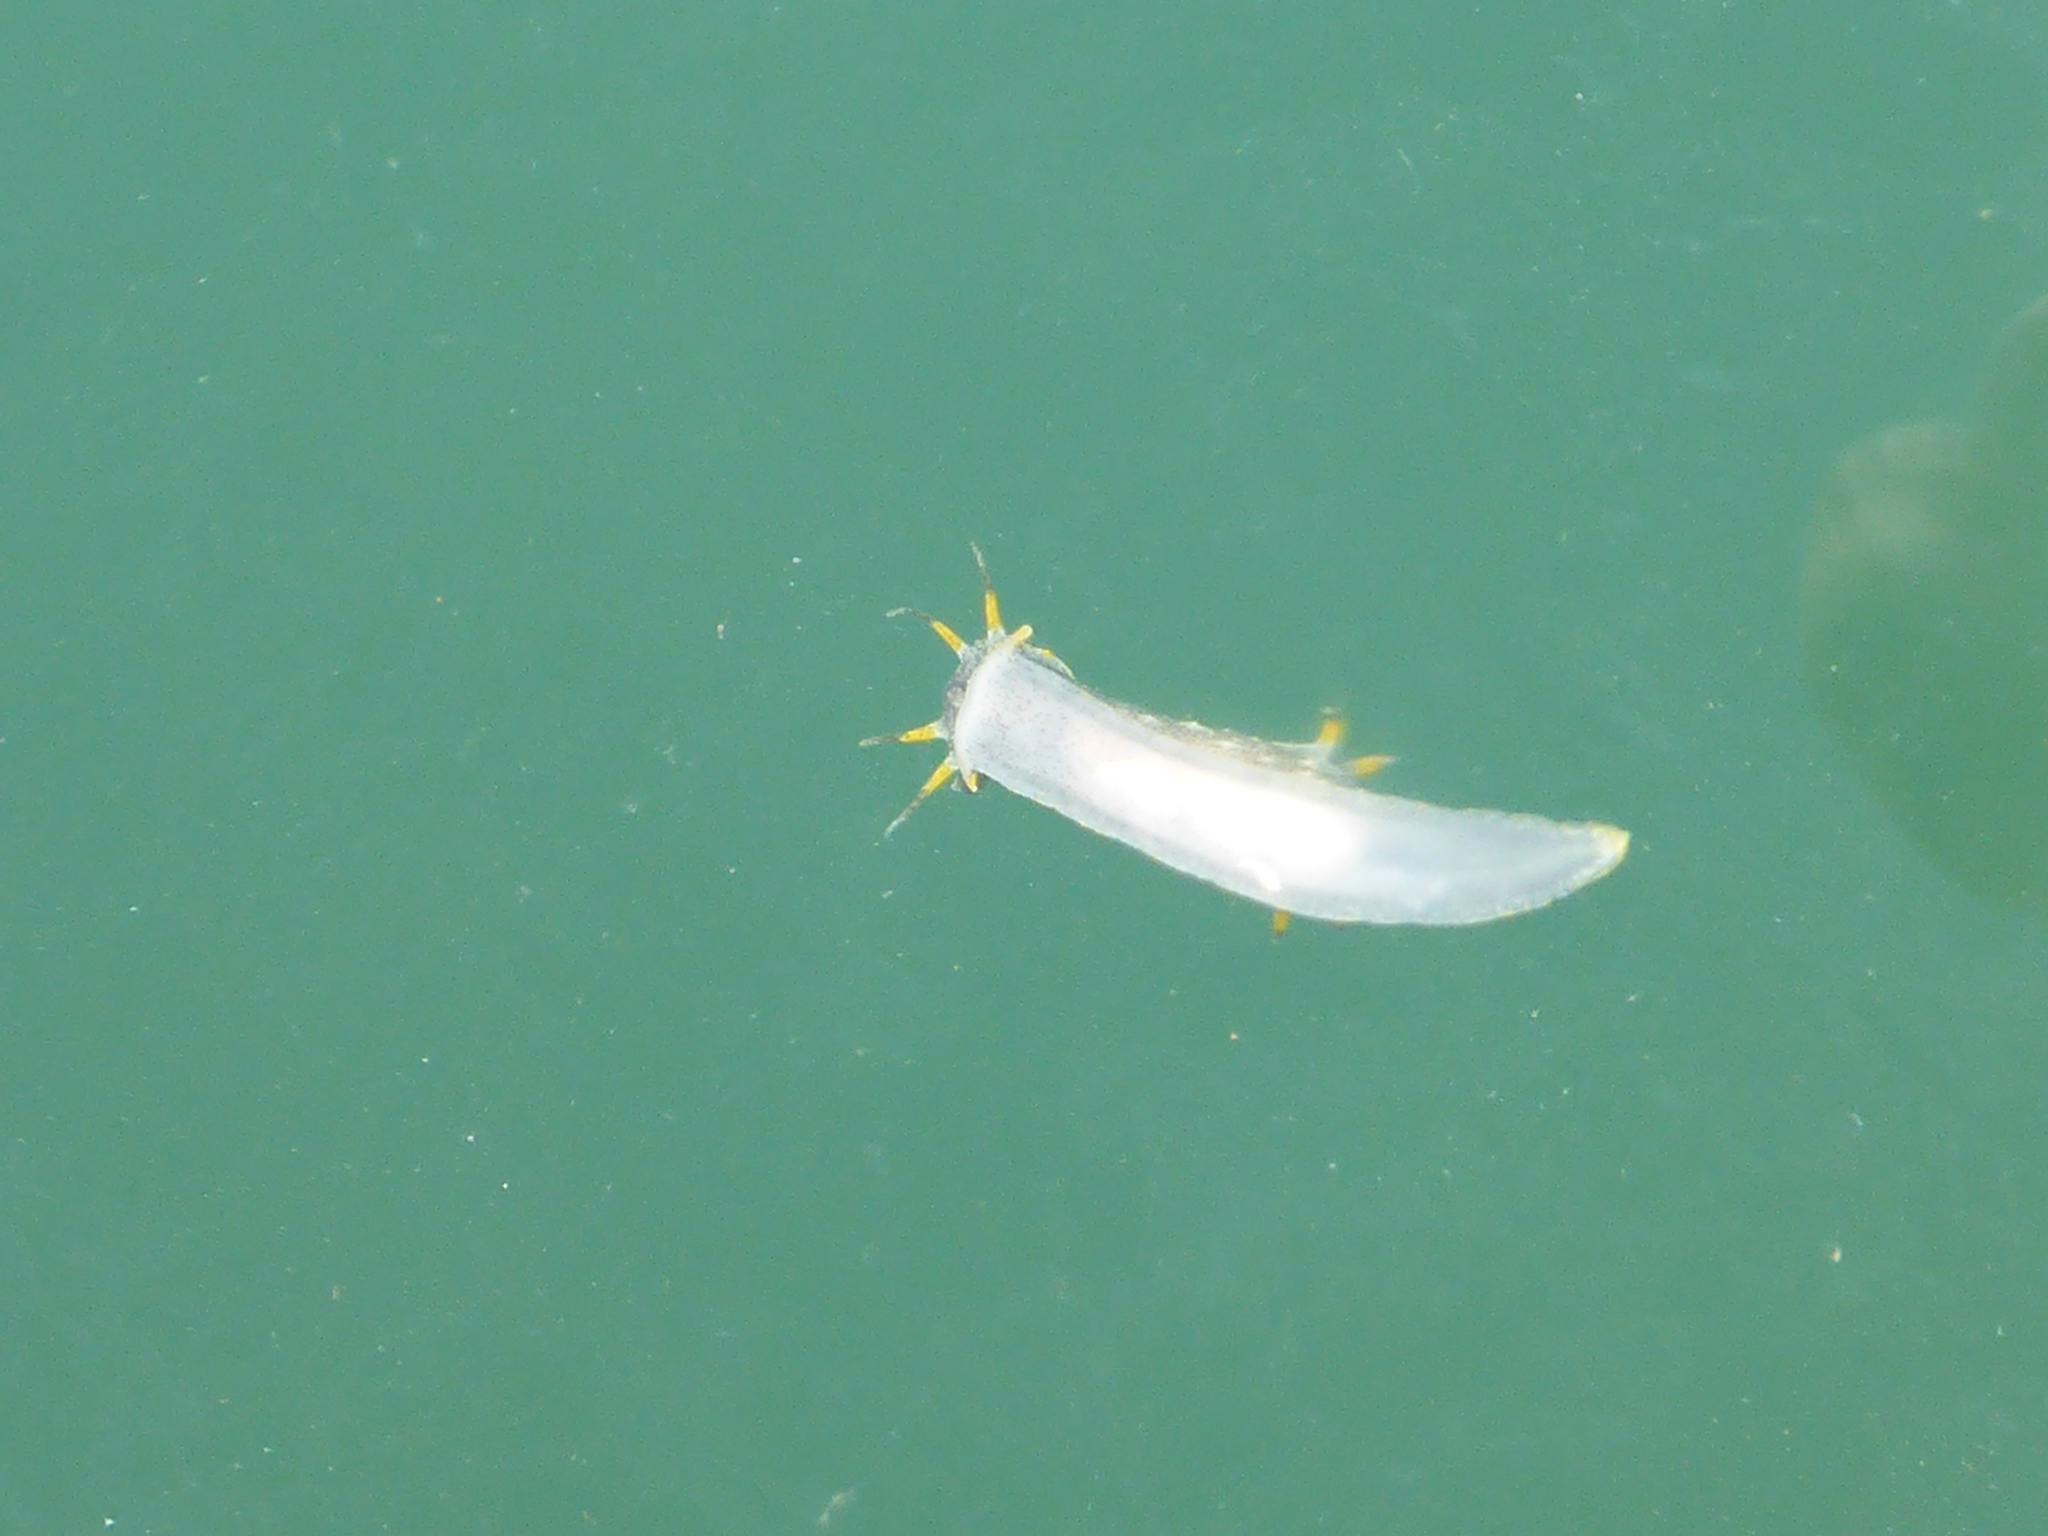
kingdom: Animalia
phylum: Mollusca
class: Gastropoda
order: Nudibranchia
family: Polyceridae
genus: Polycera
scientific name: Polycera hedgpethi
